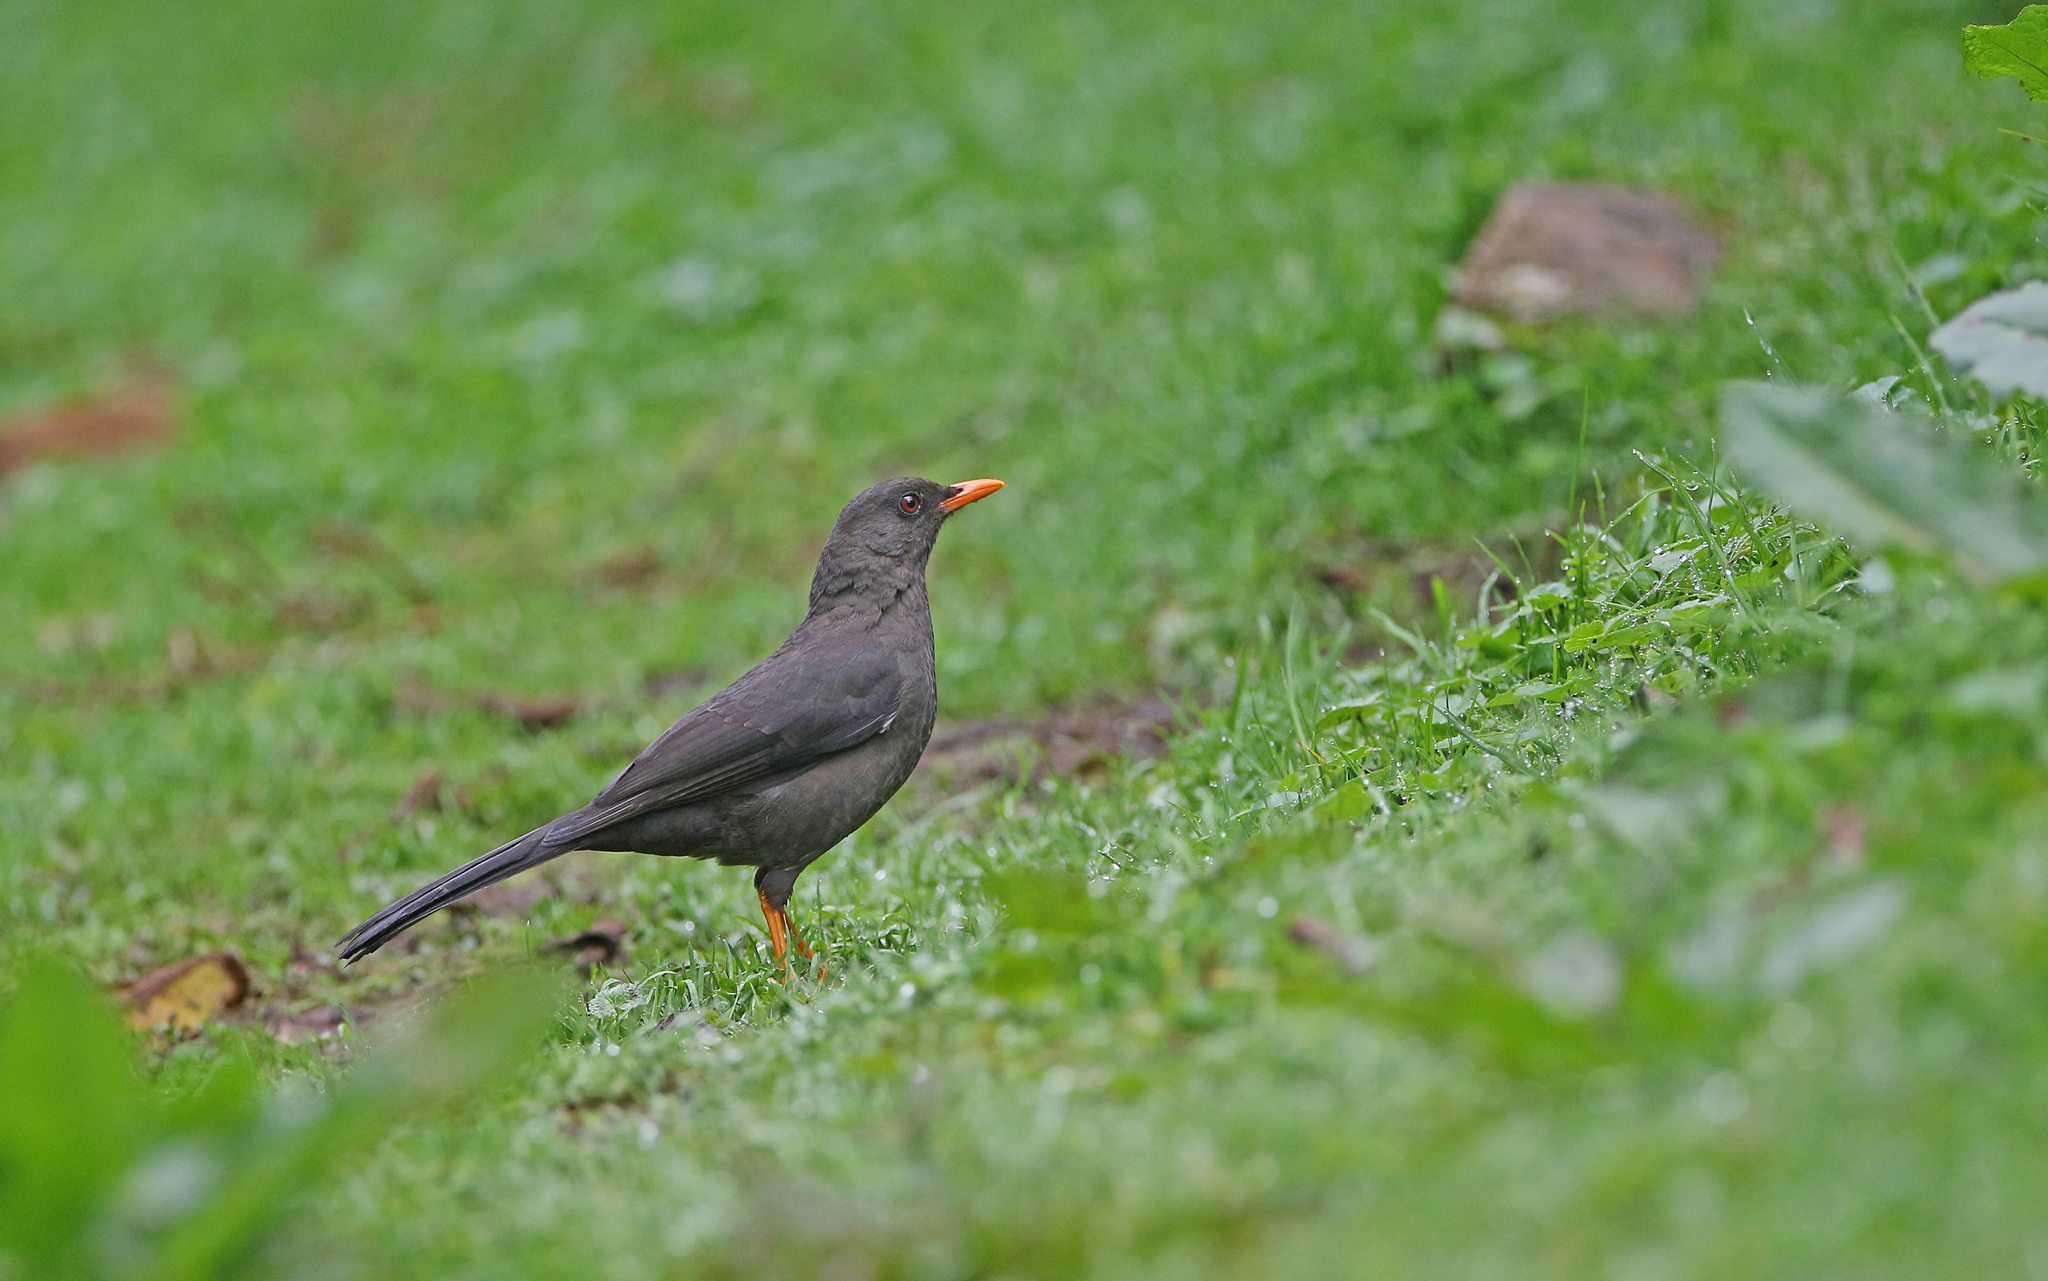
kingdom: Animalia
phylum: Chordata
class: Aves
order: Passeriformes
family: Turdidae
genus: Turdus
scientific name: Turdus fuscater
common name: Great thrush
